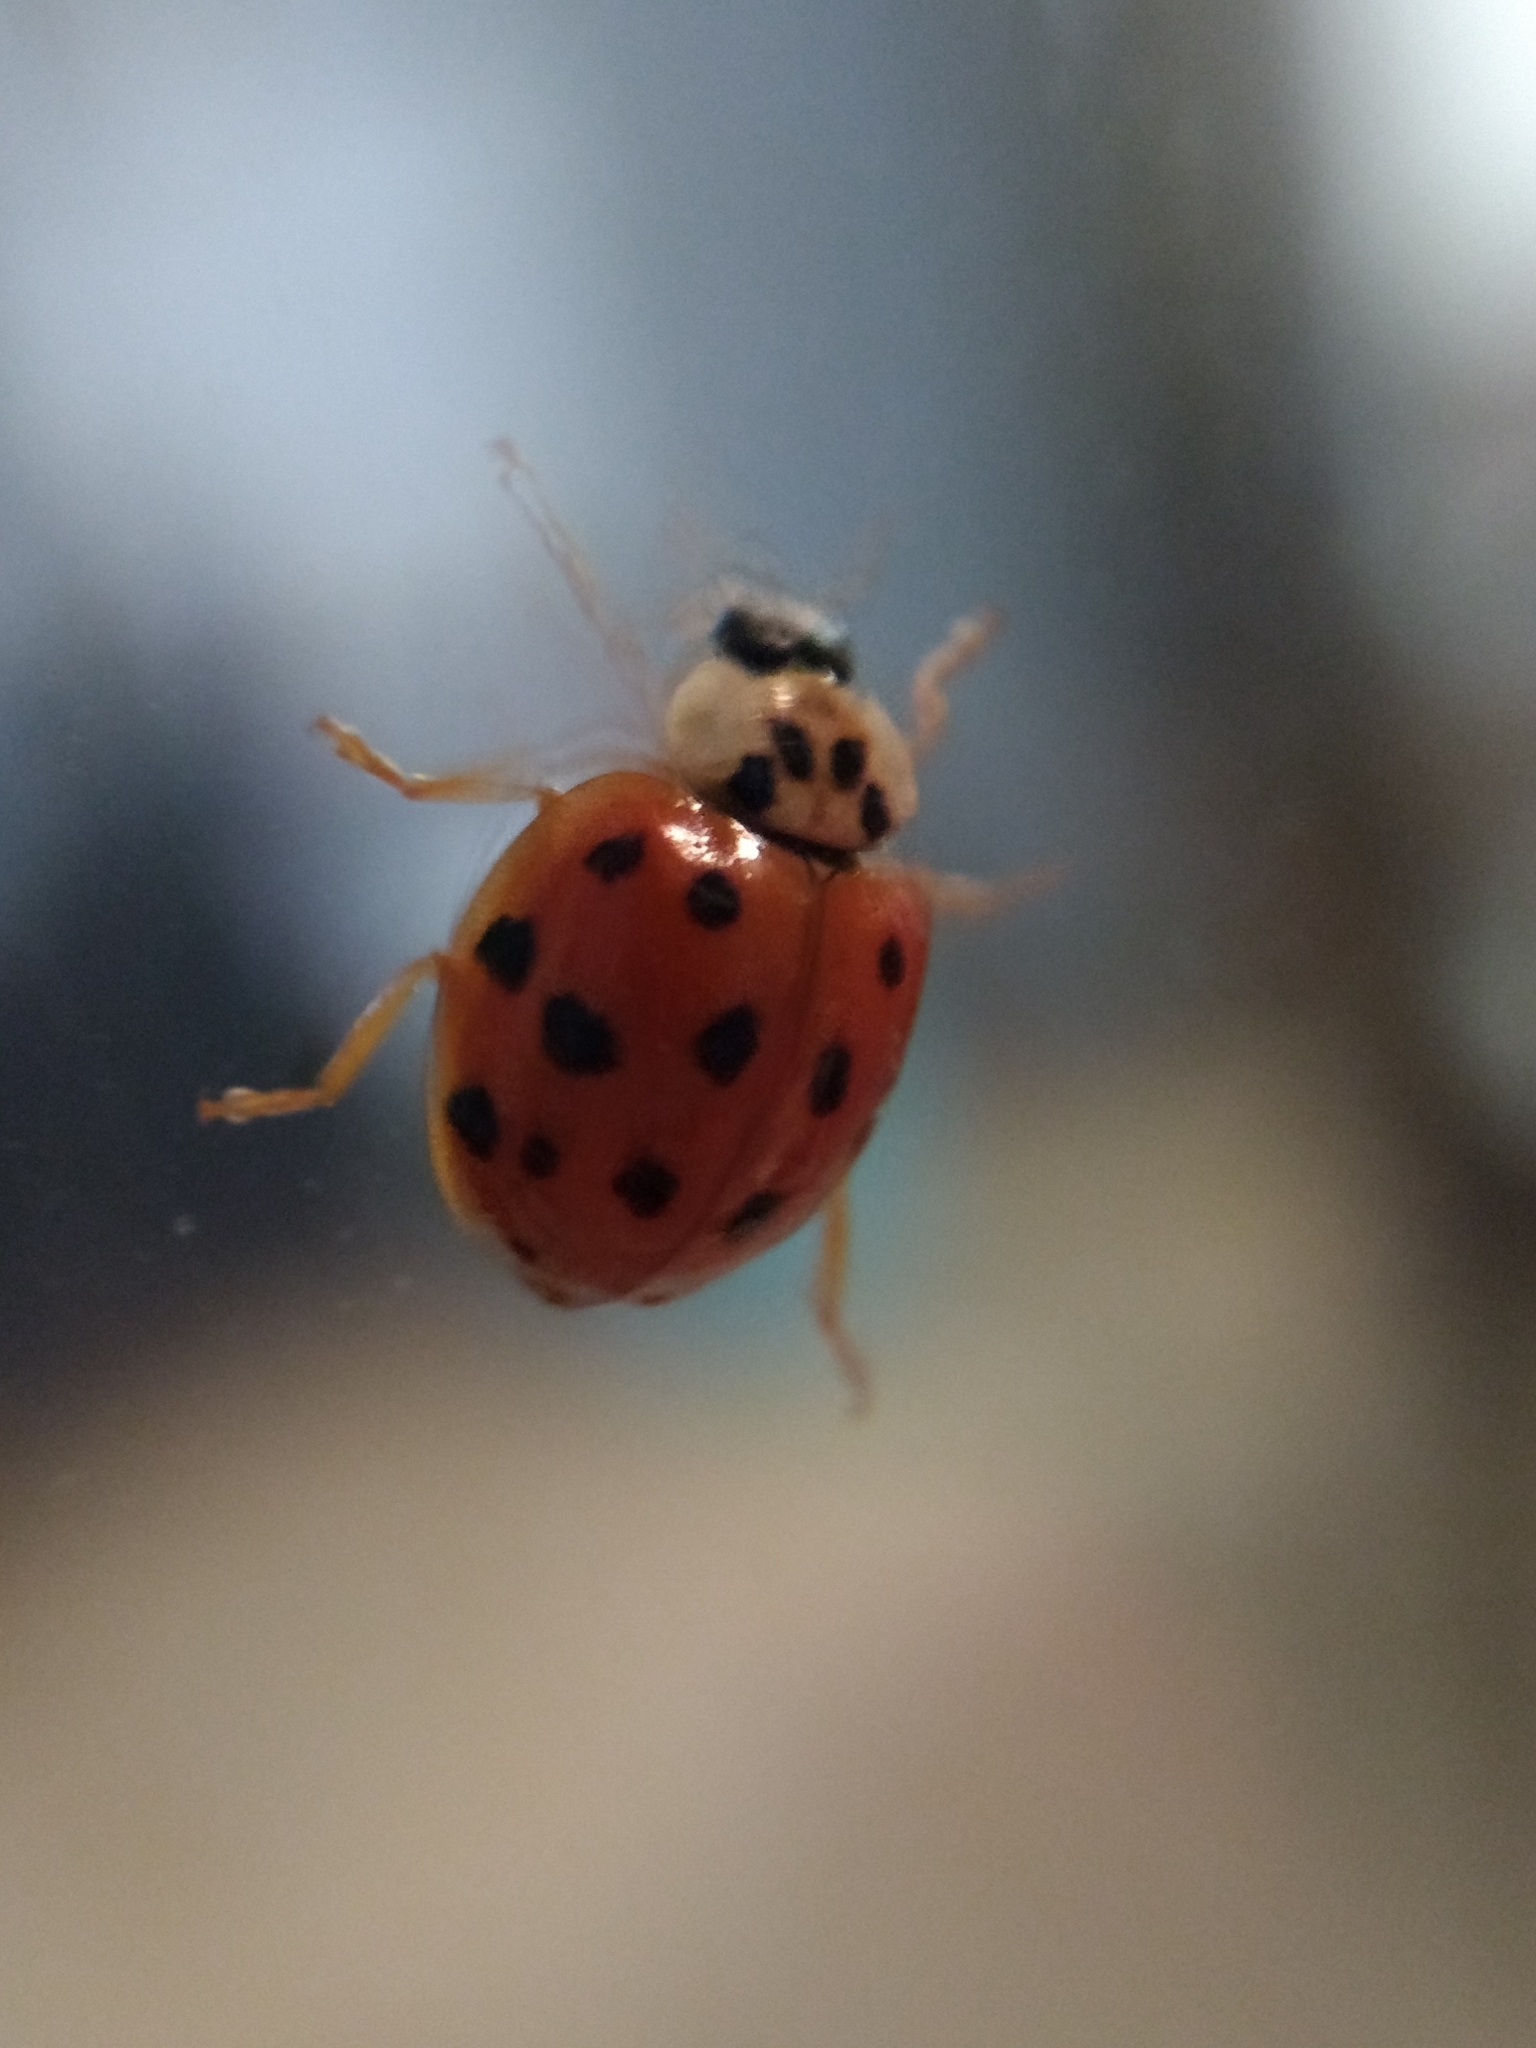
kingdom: Animalia
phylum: Arthropoda
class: Insecta
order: Coleoptera
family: Coccinellidae
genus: Harmonia
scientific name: Harmonia axyridis
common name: Harlequin ladybird
